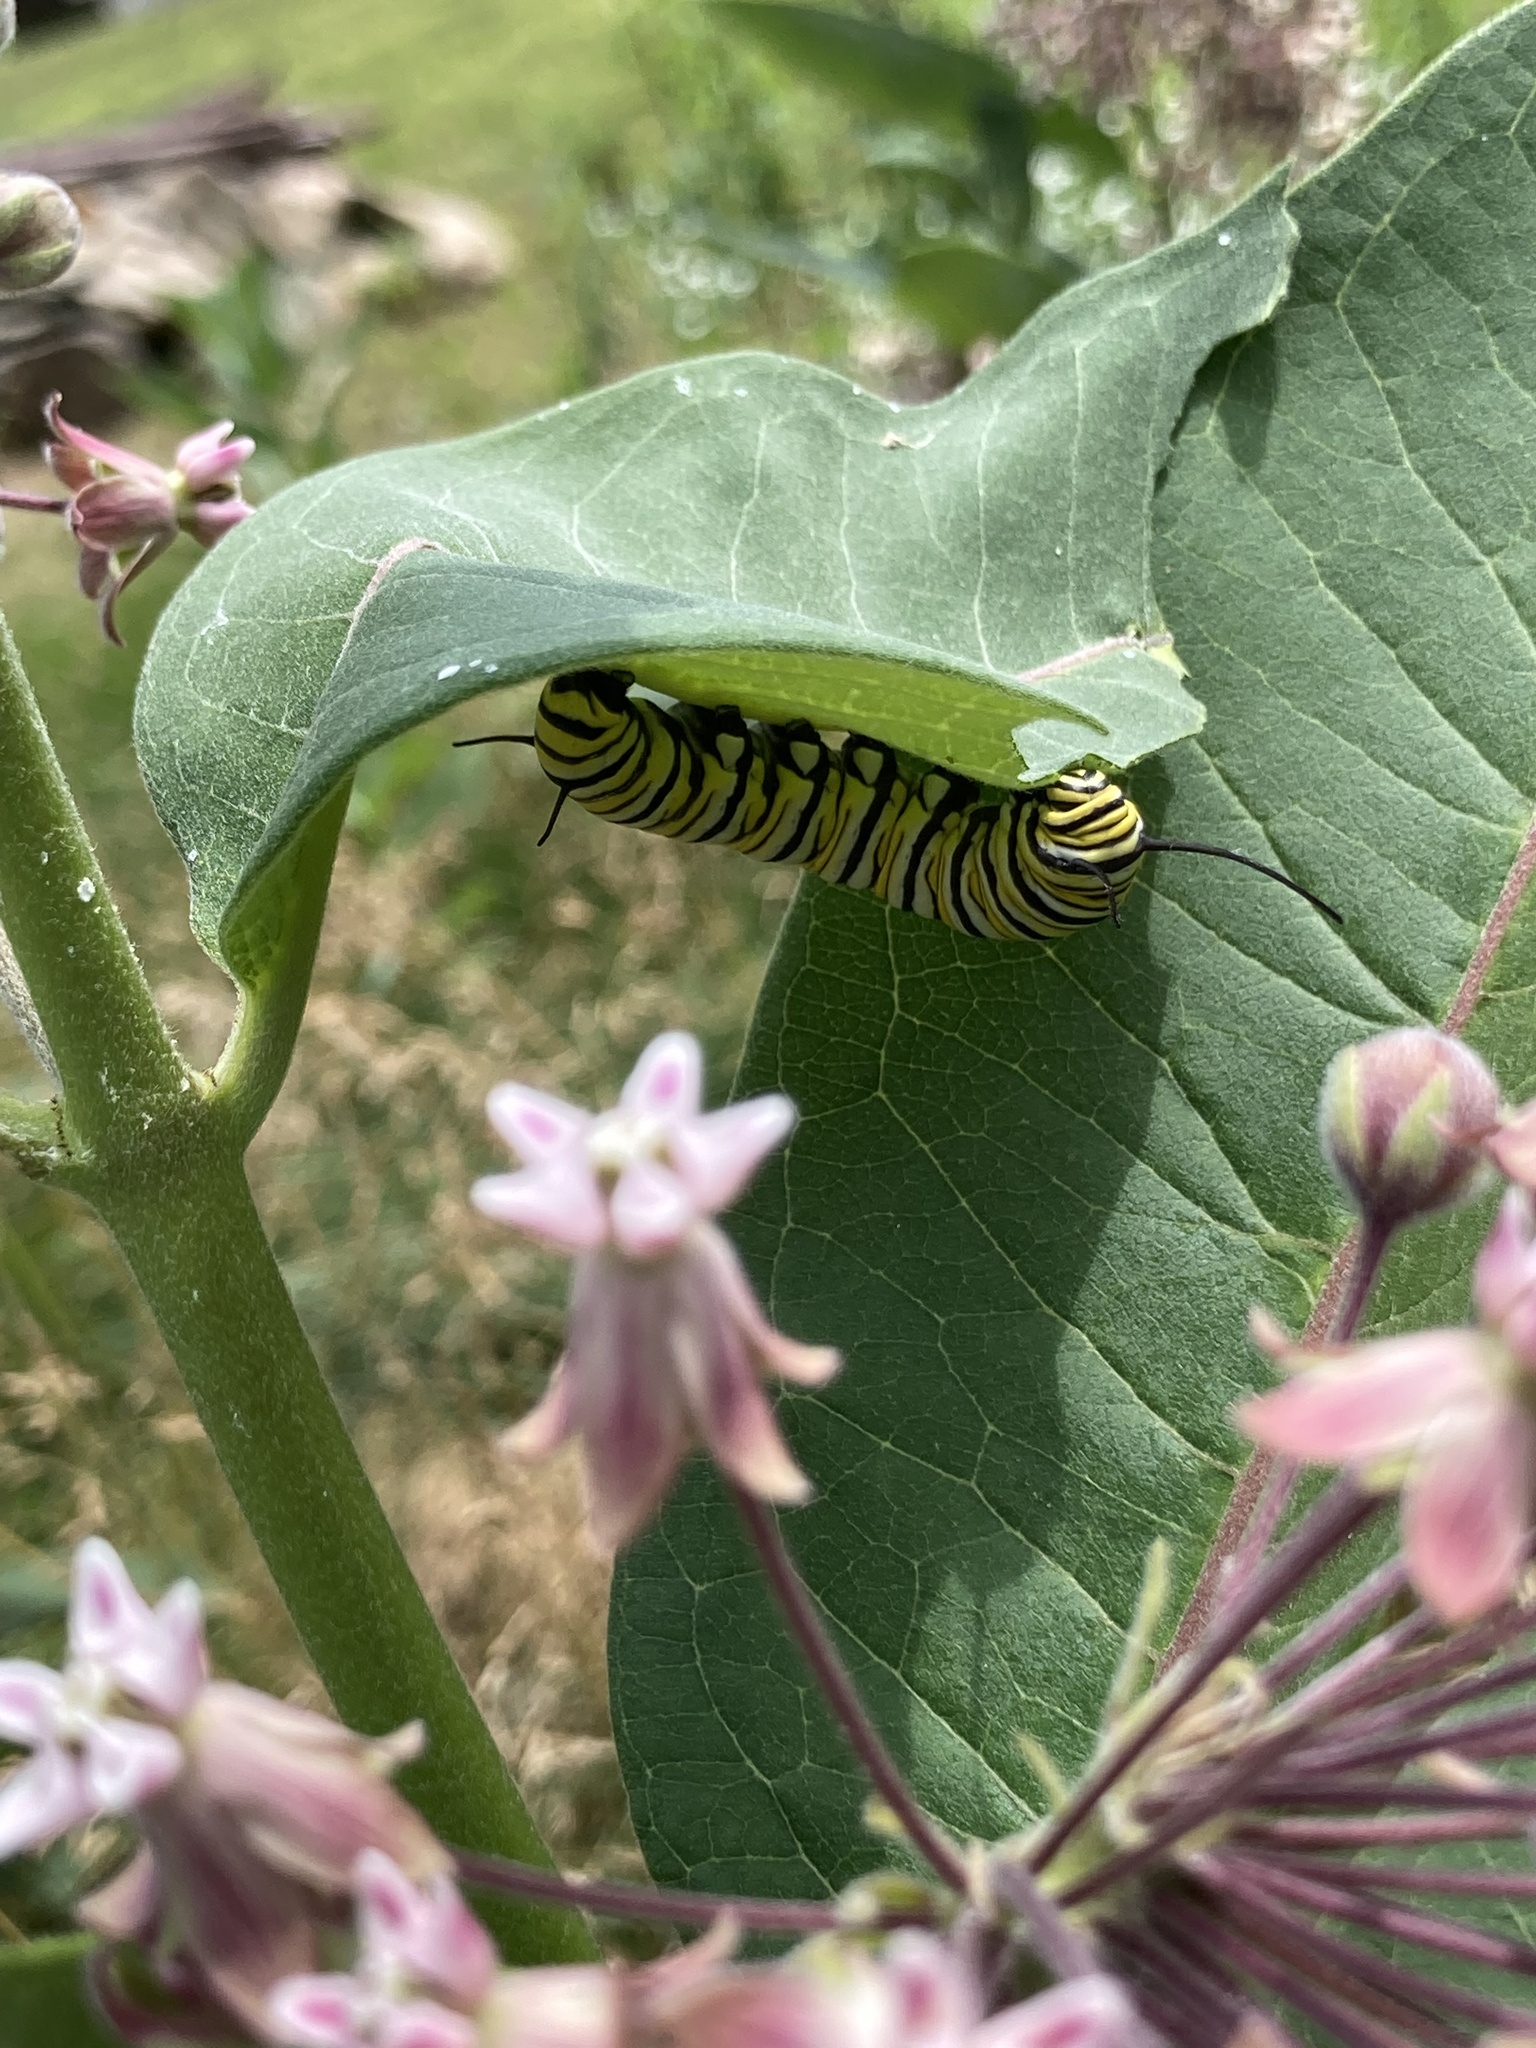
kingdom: Animalia
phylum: Arthropoda
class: Insecta
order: Lepidoptera
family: Nymphalidae
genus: Danaus
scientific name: Danaus plexippus
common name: Monarch
